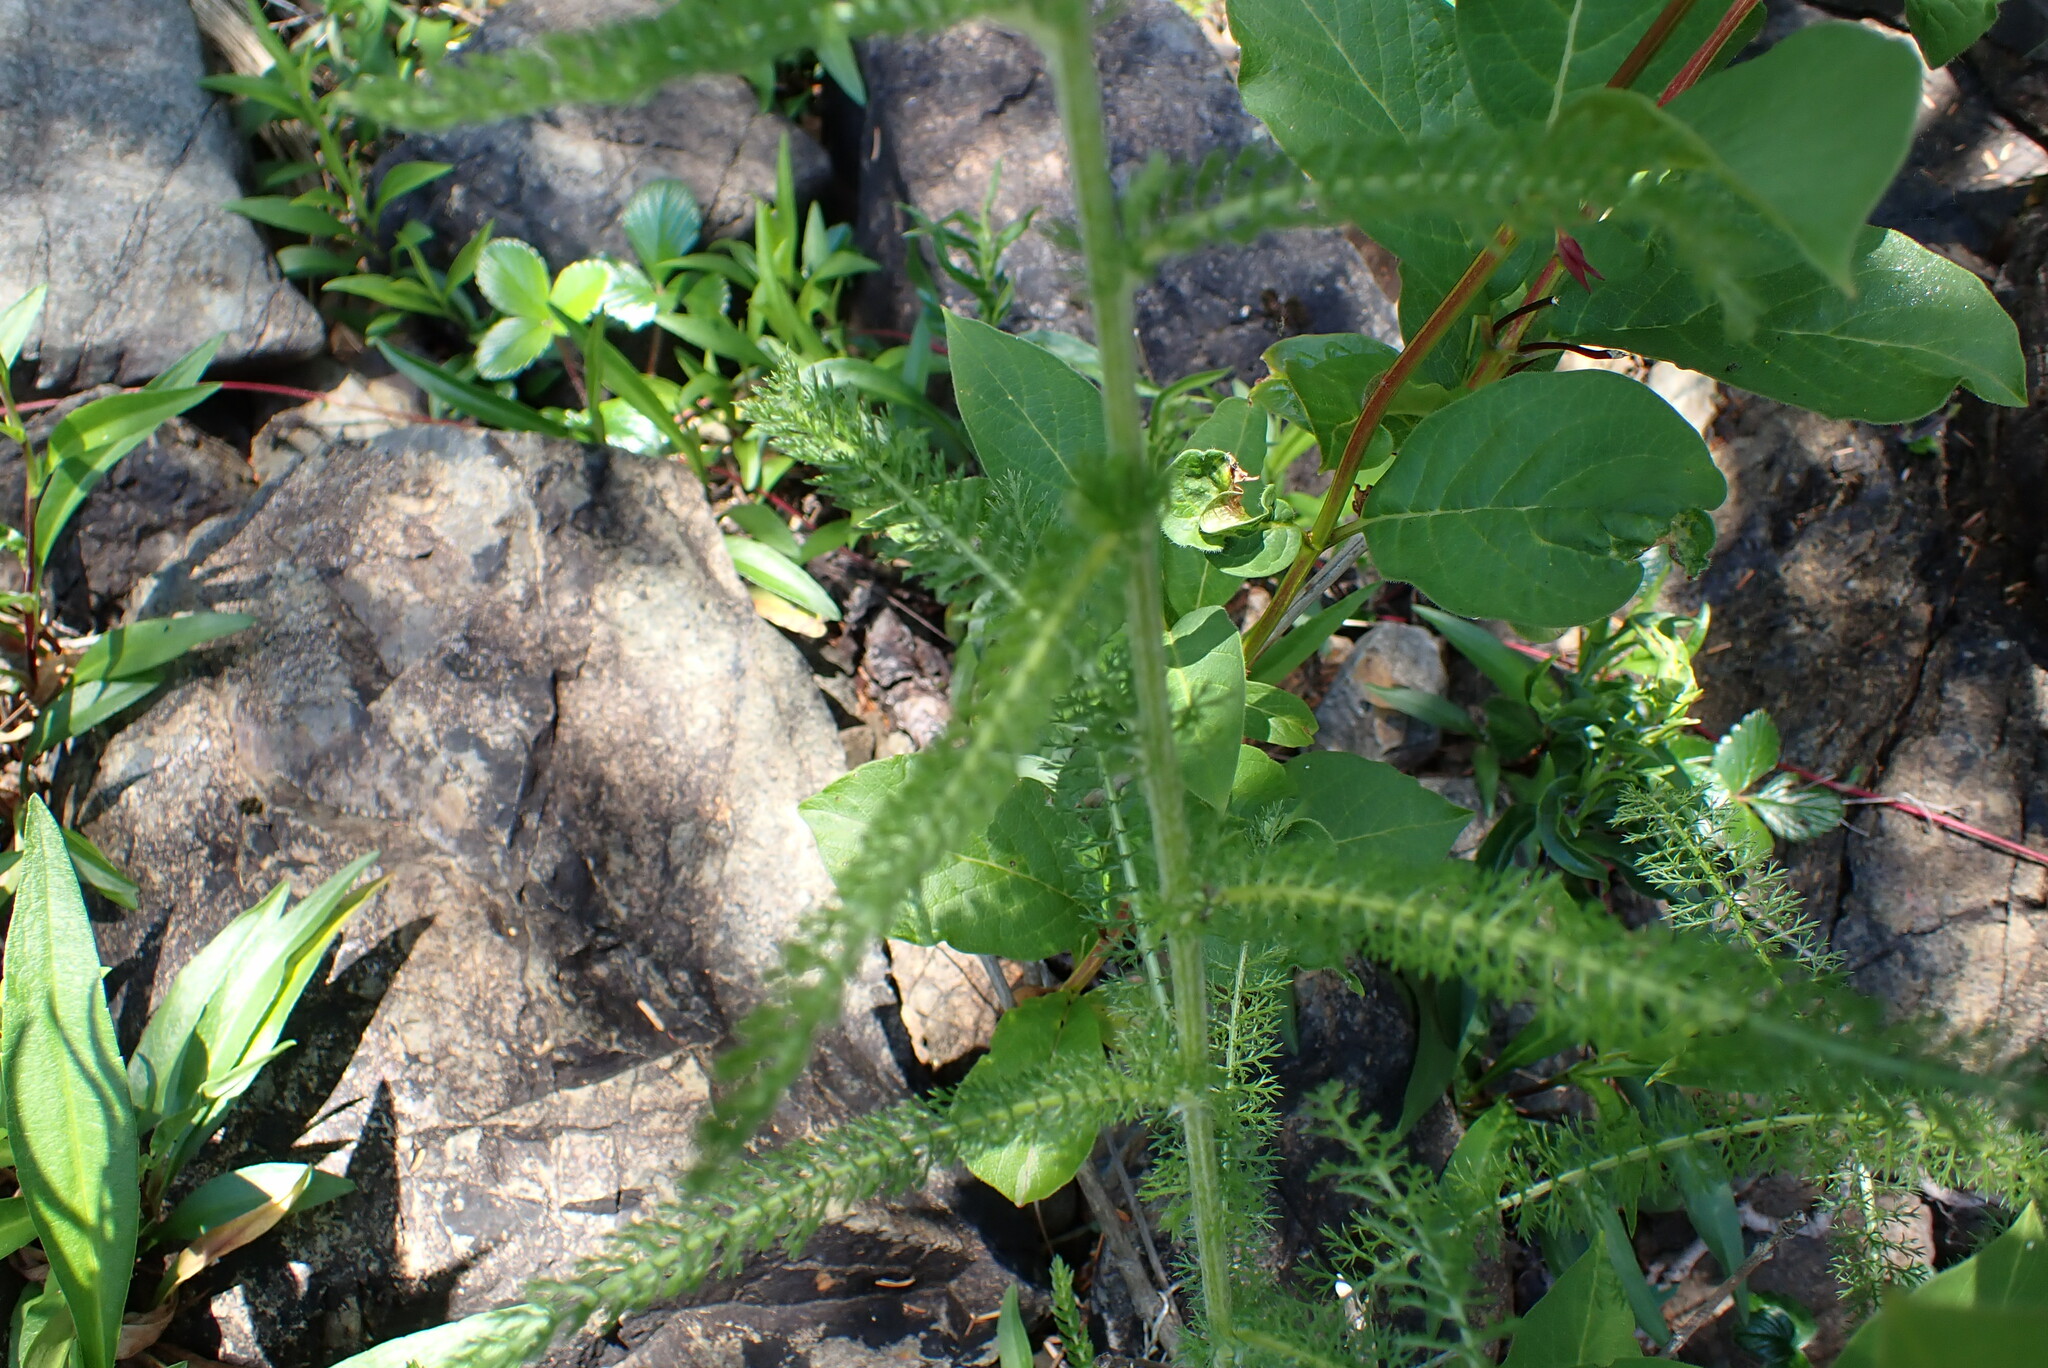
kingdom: Plantae
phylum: Tracheophyta
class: Magnoliopsida
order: Asterales
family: Asteraceae
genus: Achillea
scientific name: Achillea millefolium
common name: Yarrow
